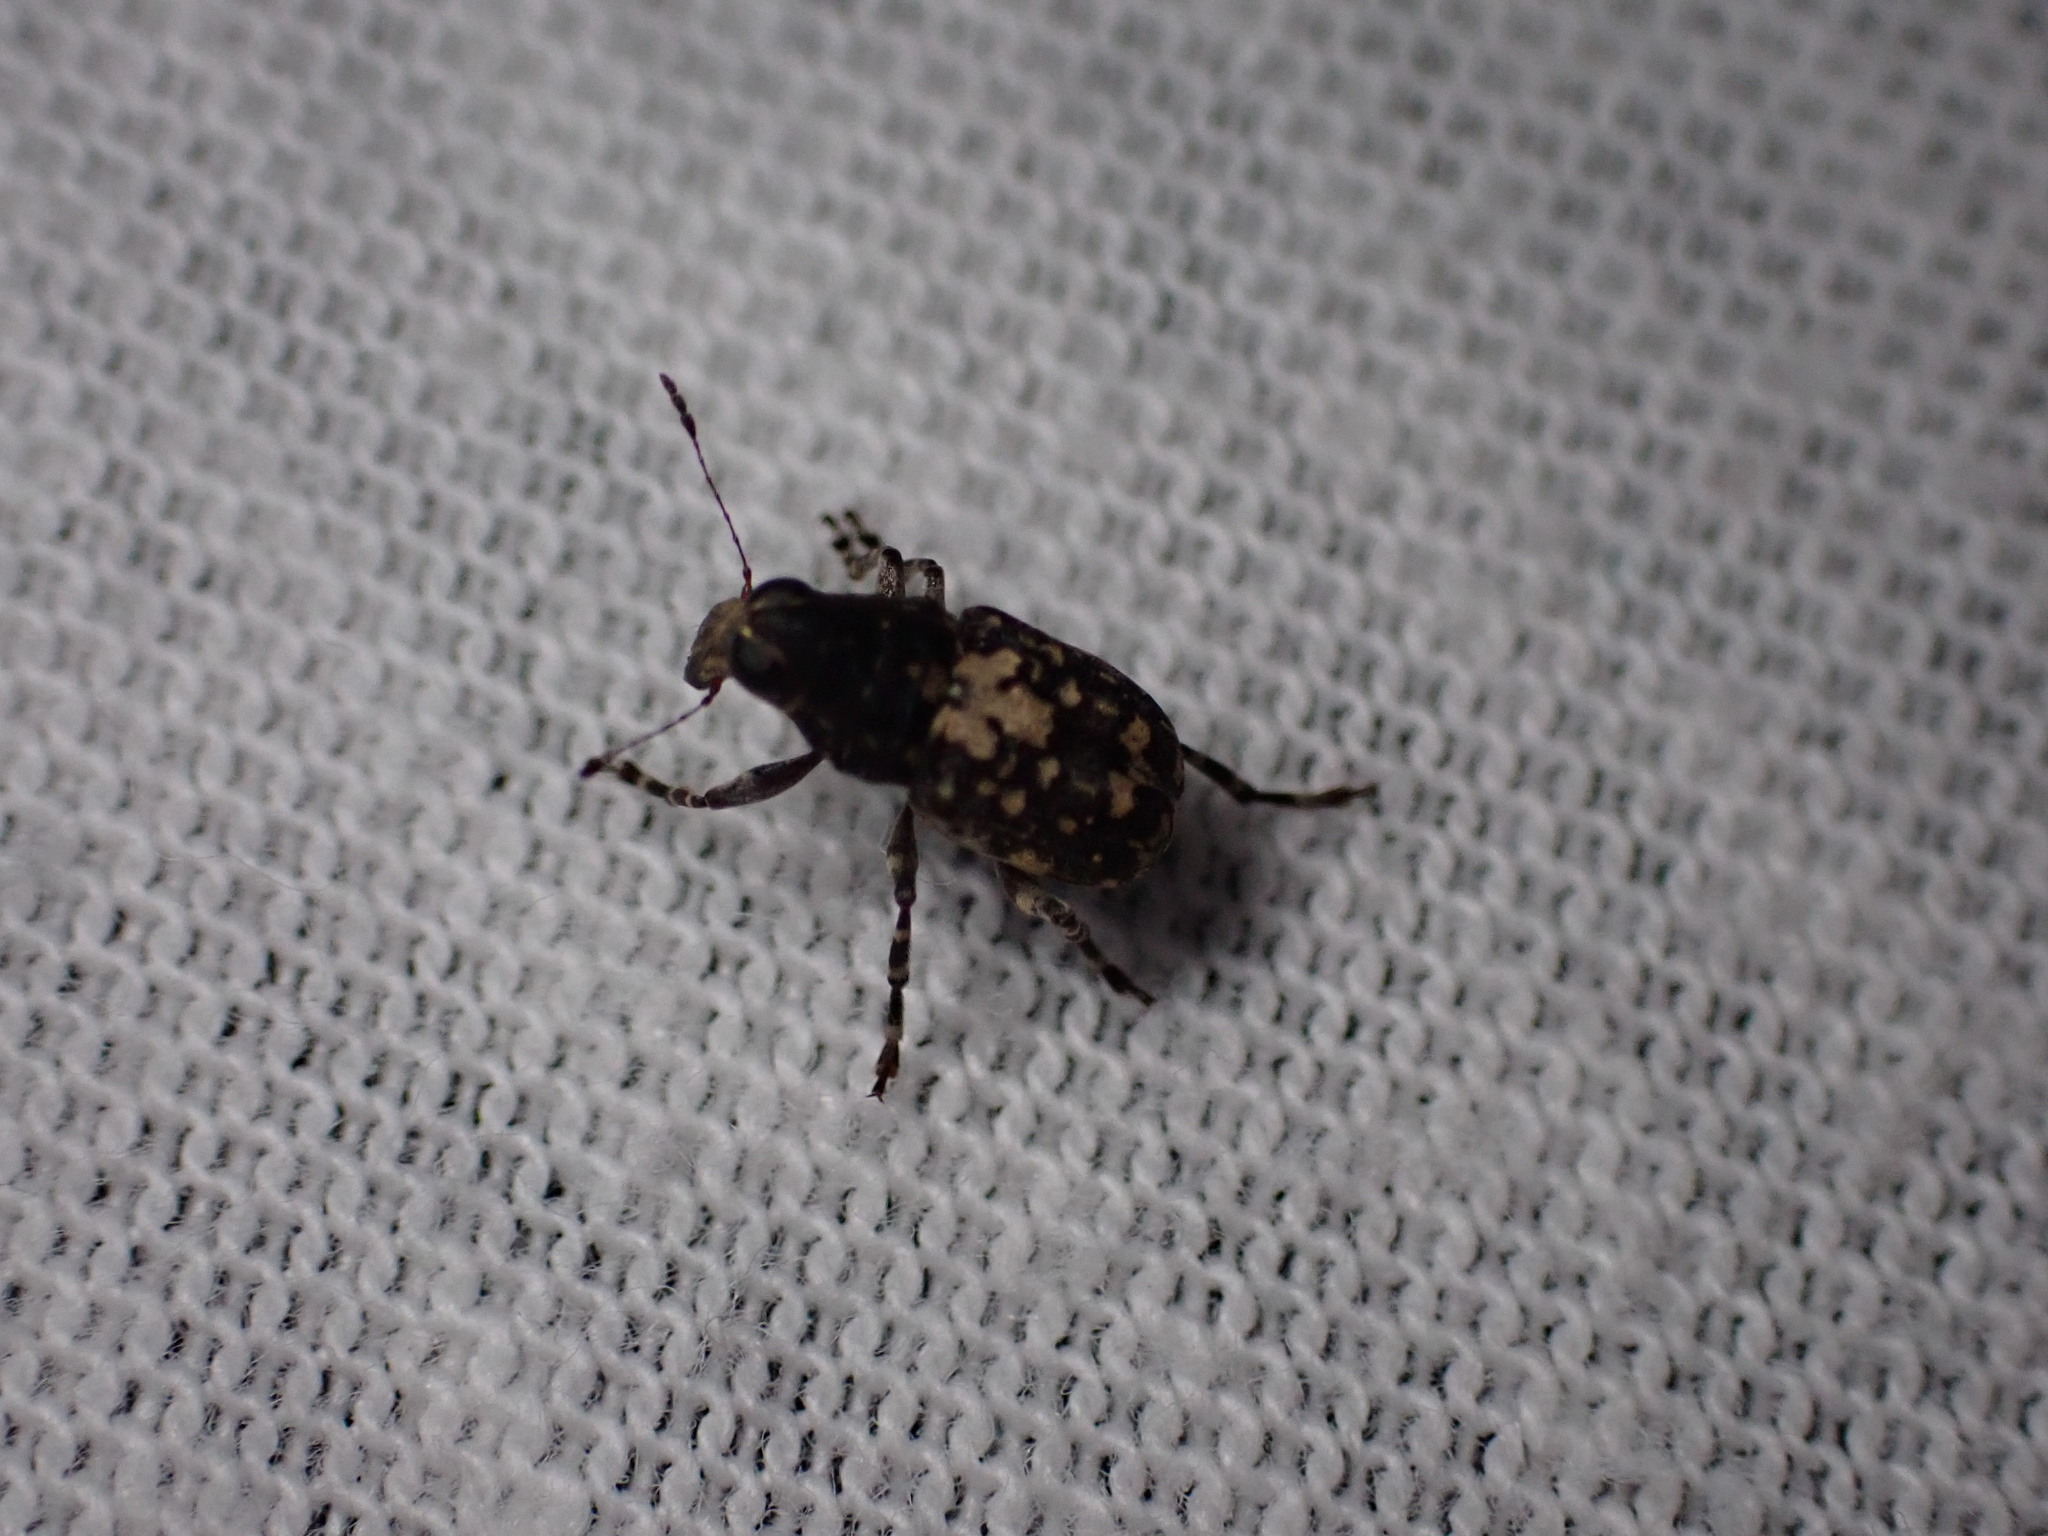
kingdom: Animalia
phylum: Arthropoda
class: Insecta
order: Coleoptera
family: Anthribidae
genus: Sphinctotropis
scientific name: Sphinctotropis paviei
